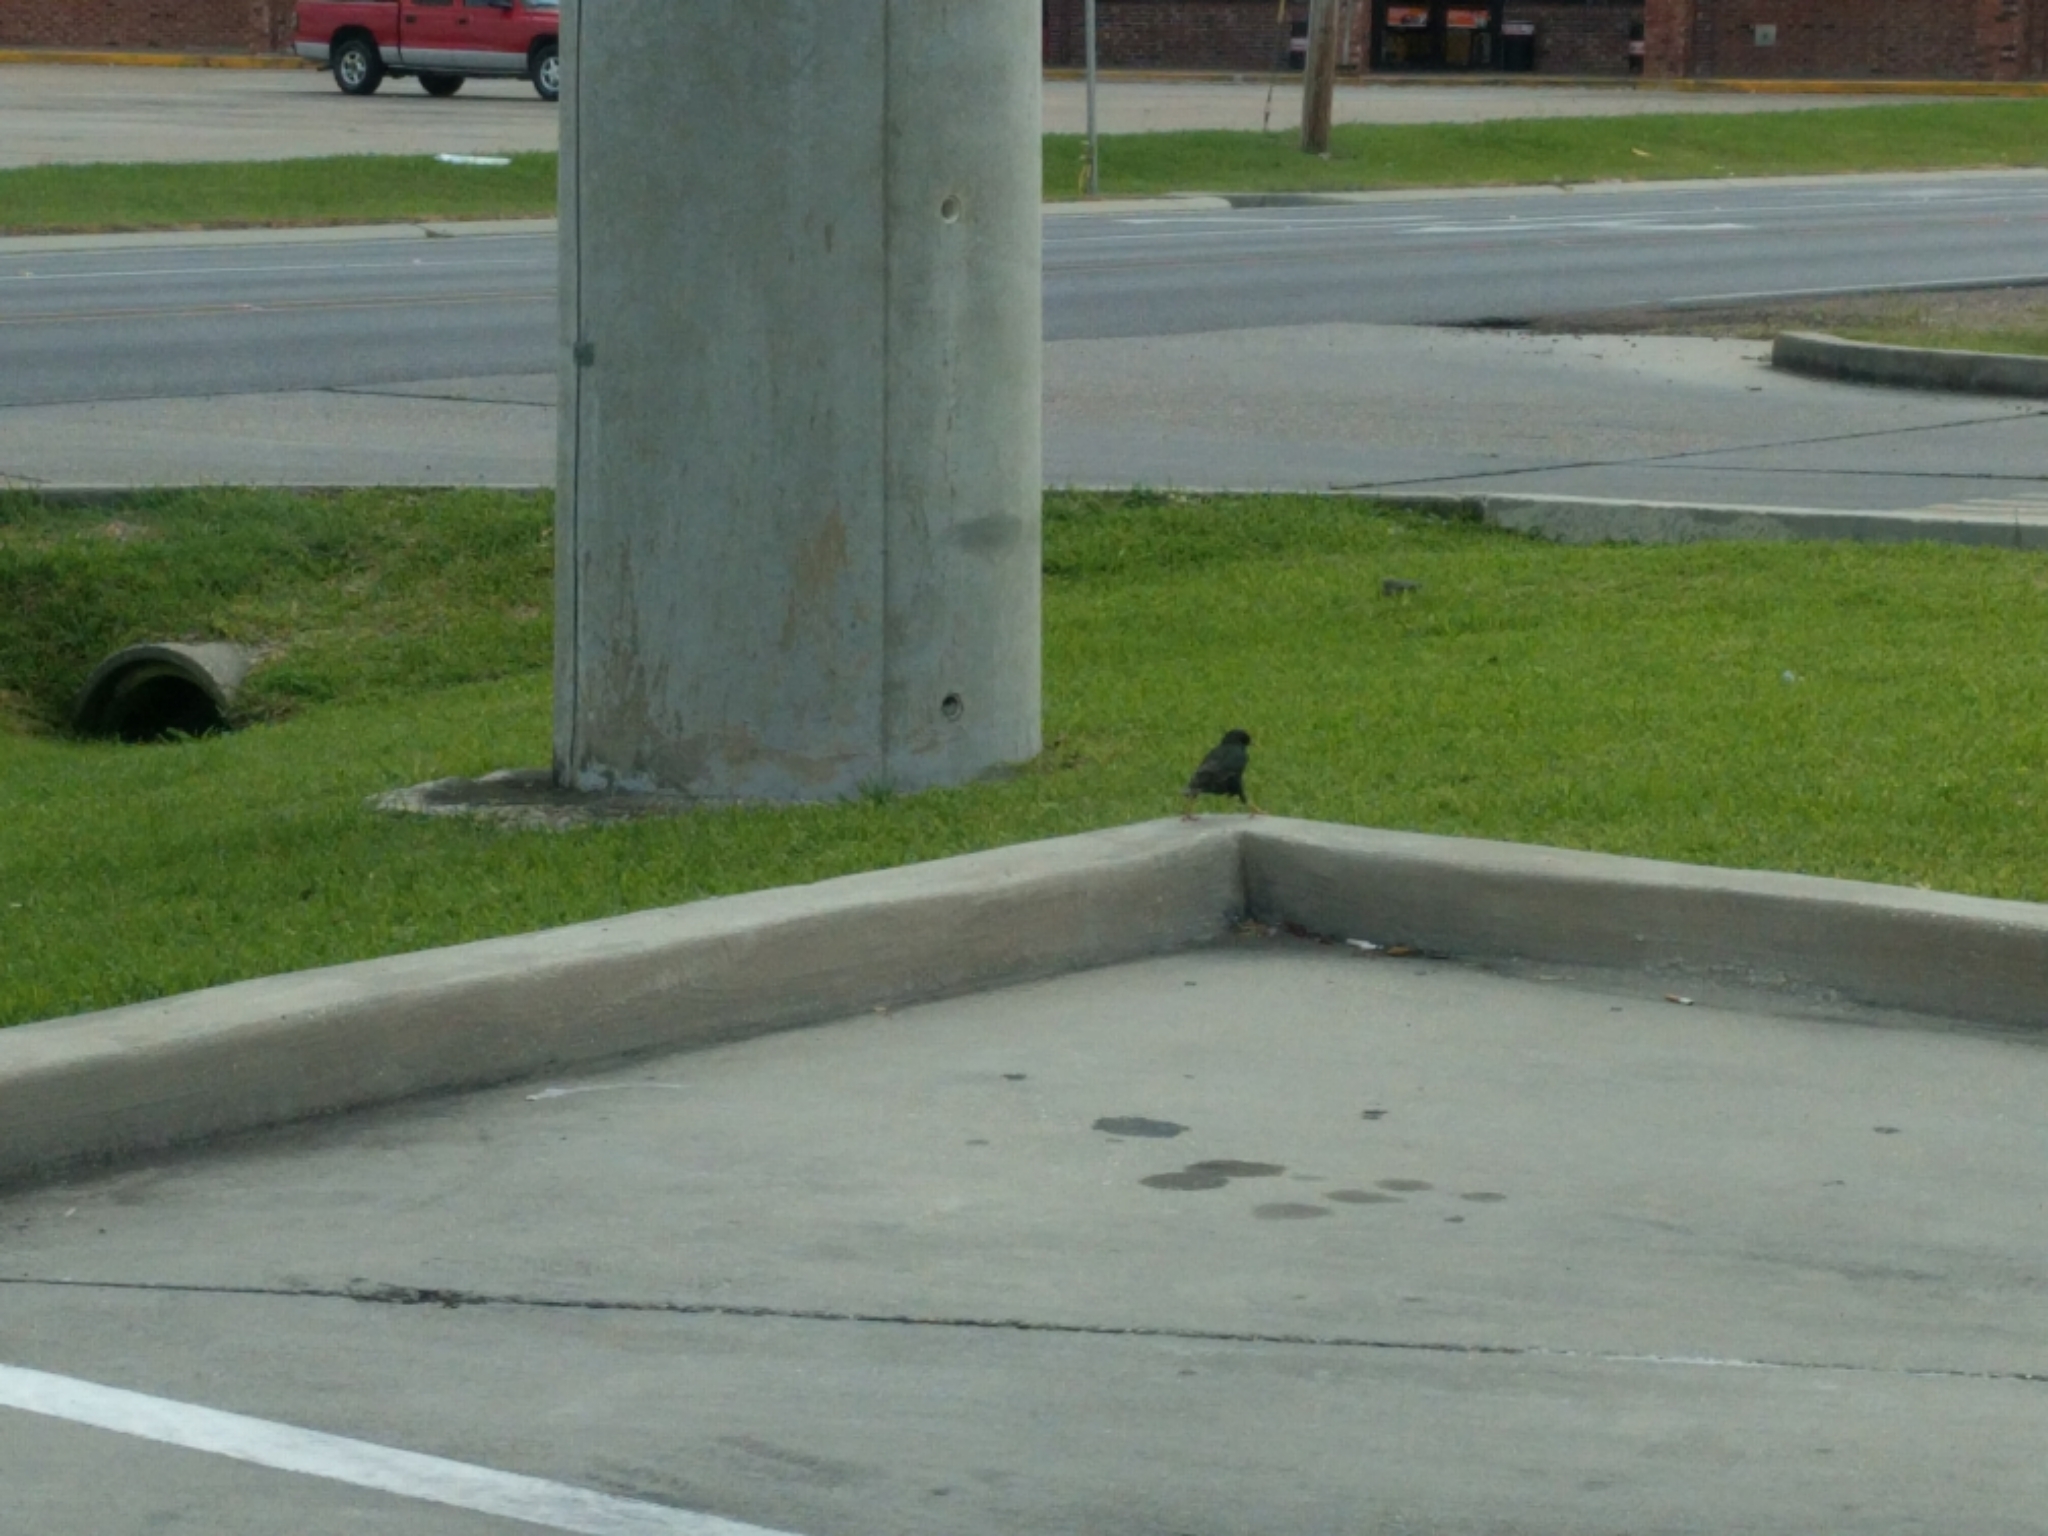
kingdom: Animalia
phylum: Chordata
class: Aves
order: Passeriformes
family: Sturnidae
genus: Sturnus
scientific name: Sturnus vulgaris
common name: Common starling
